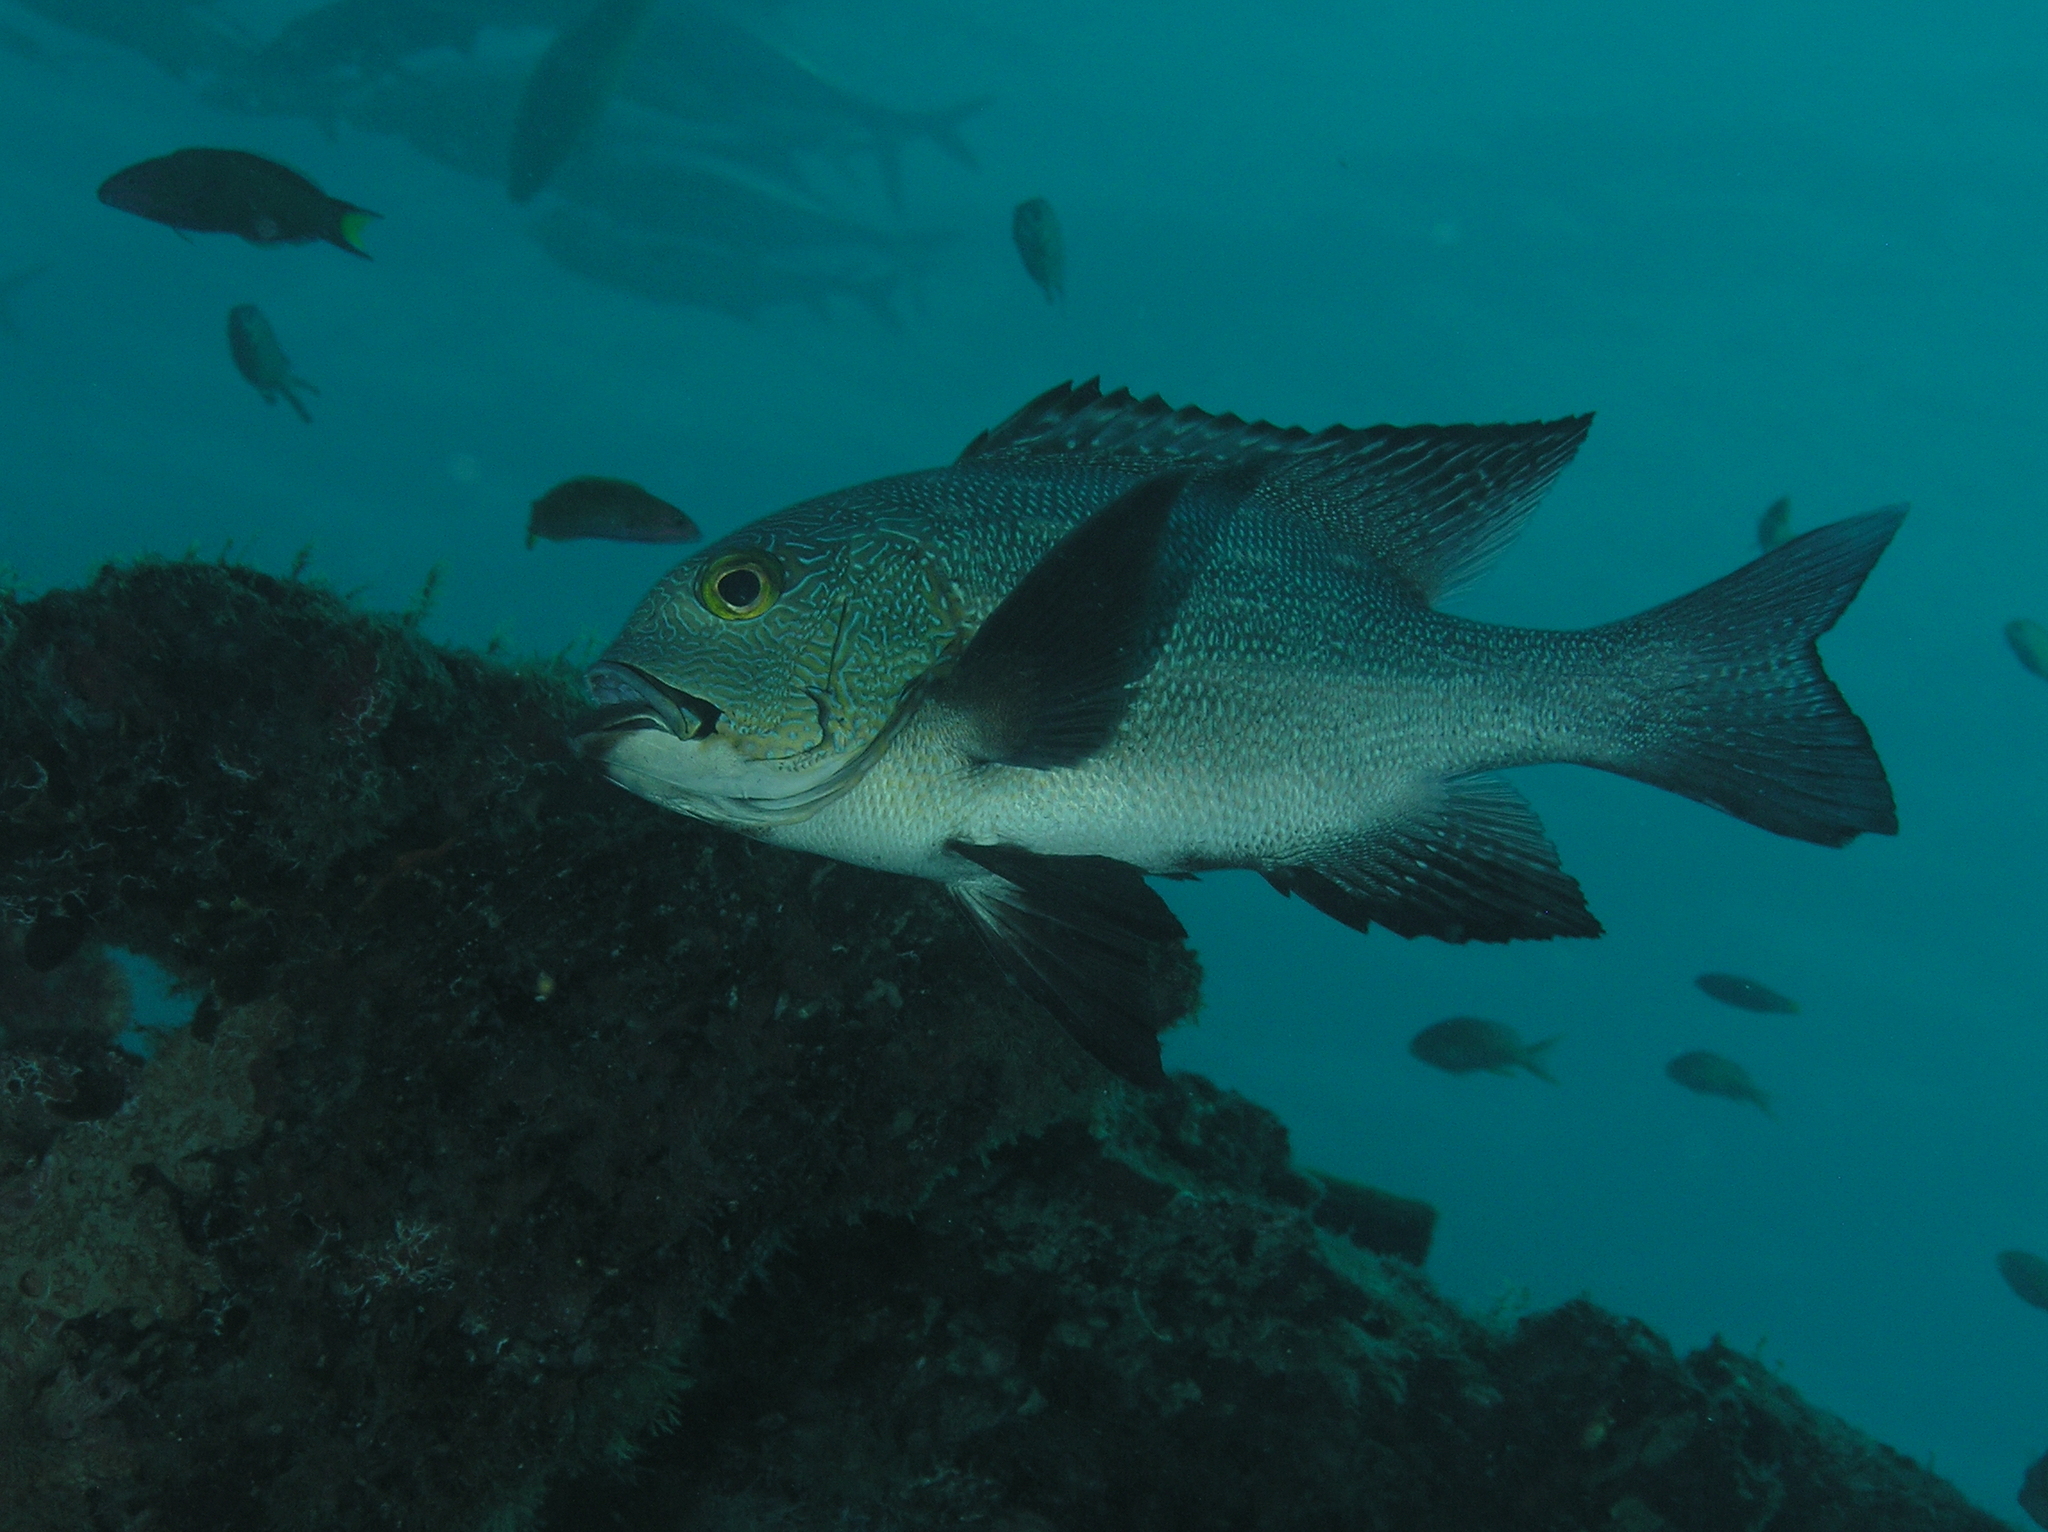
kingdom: Animalia
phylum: Chordata
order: Perciformes
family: Lutjanidae
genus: Macolor
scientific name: Macolor macularis
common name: Midnight snapper
